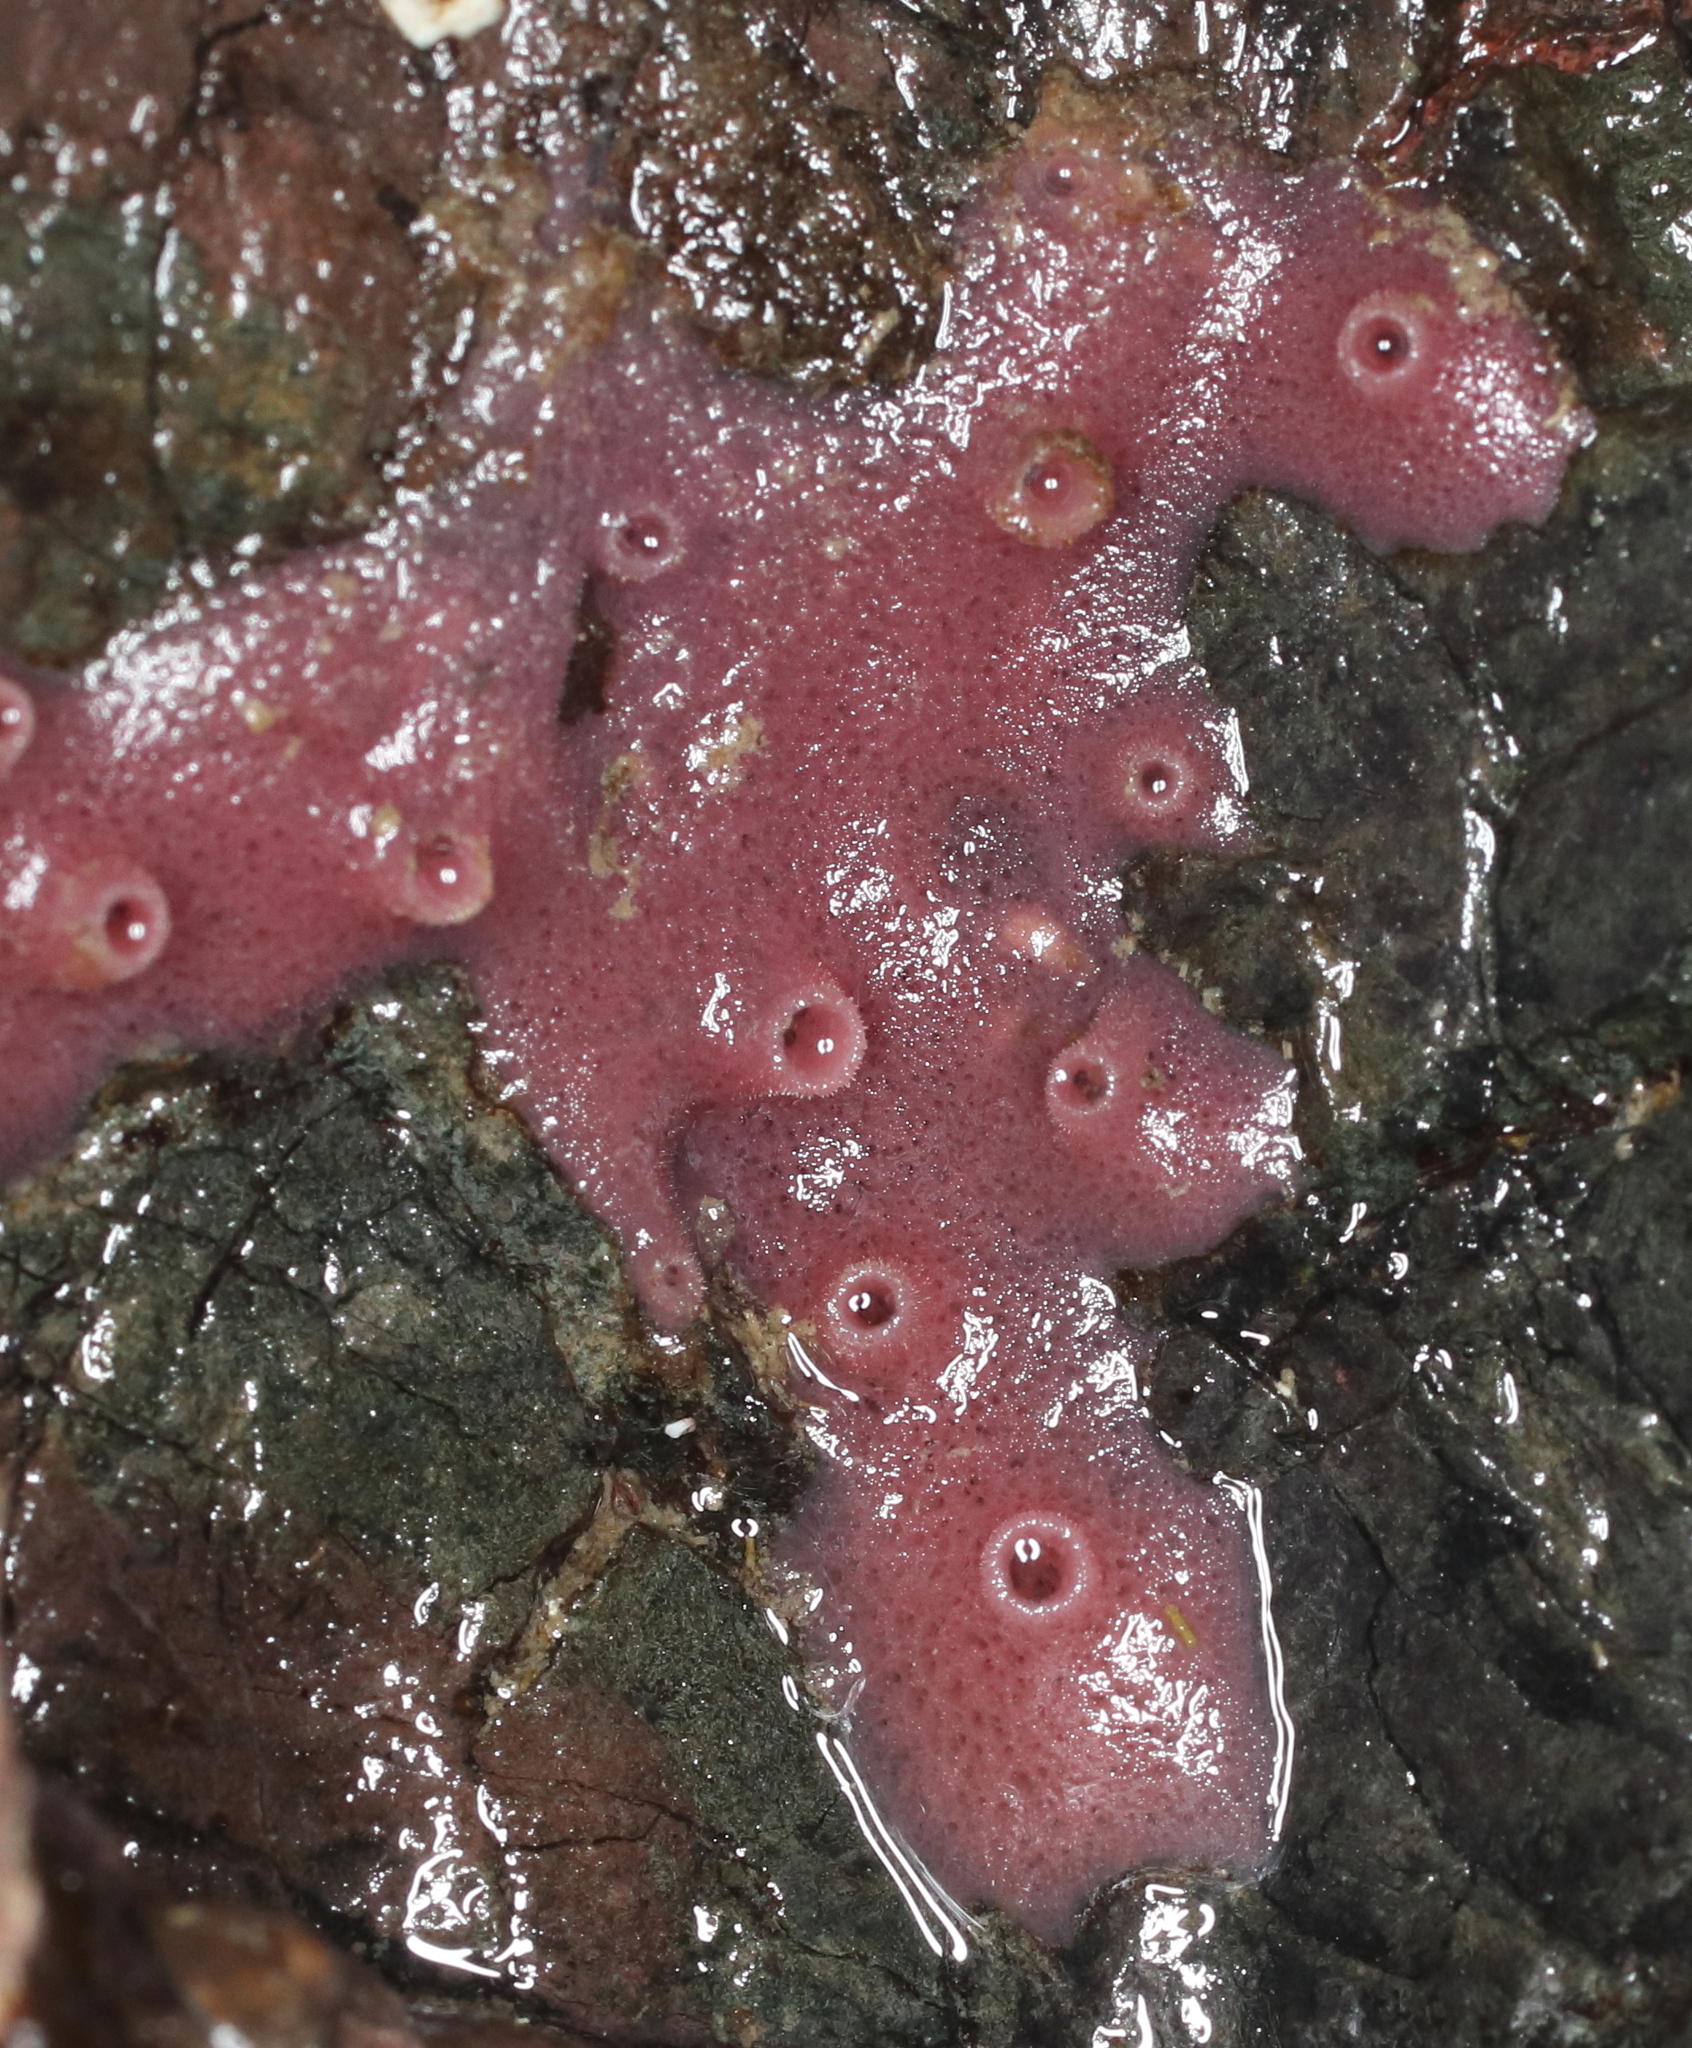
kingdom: Animalia
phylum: Porifera
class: Demospongiae
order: Haplosclerida
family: Chalinidae
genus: Haliclona
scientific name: Haliclona cinerea
